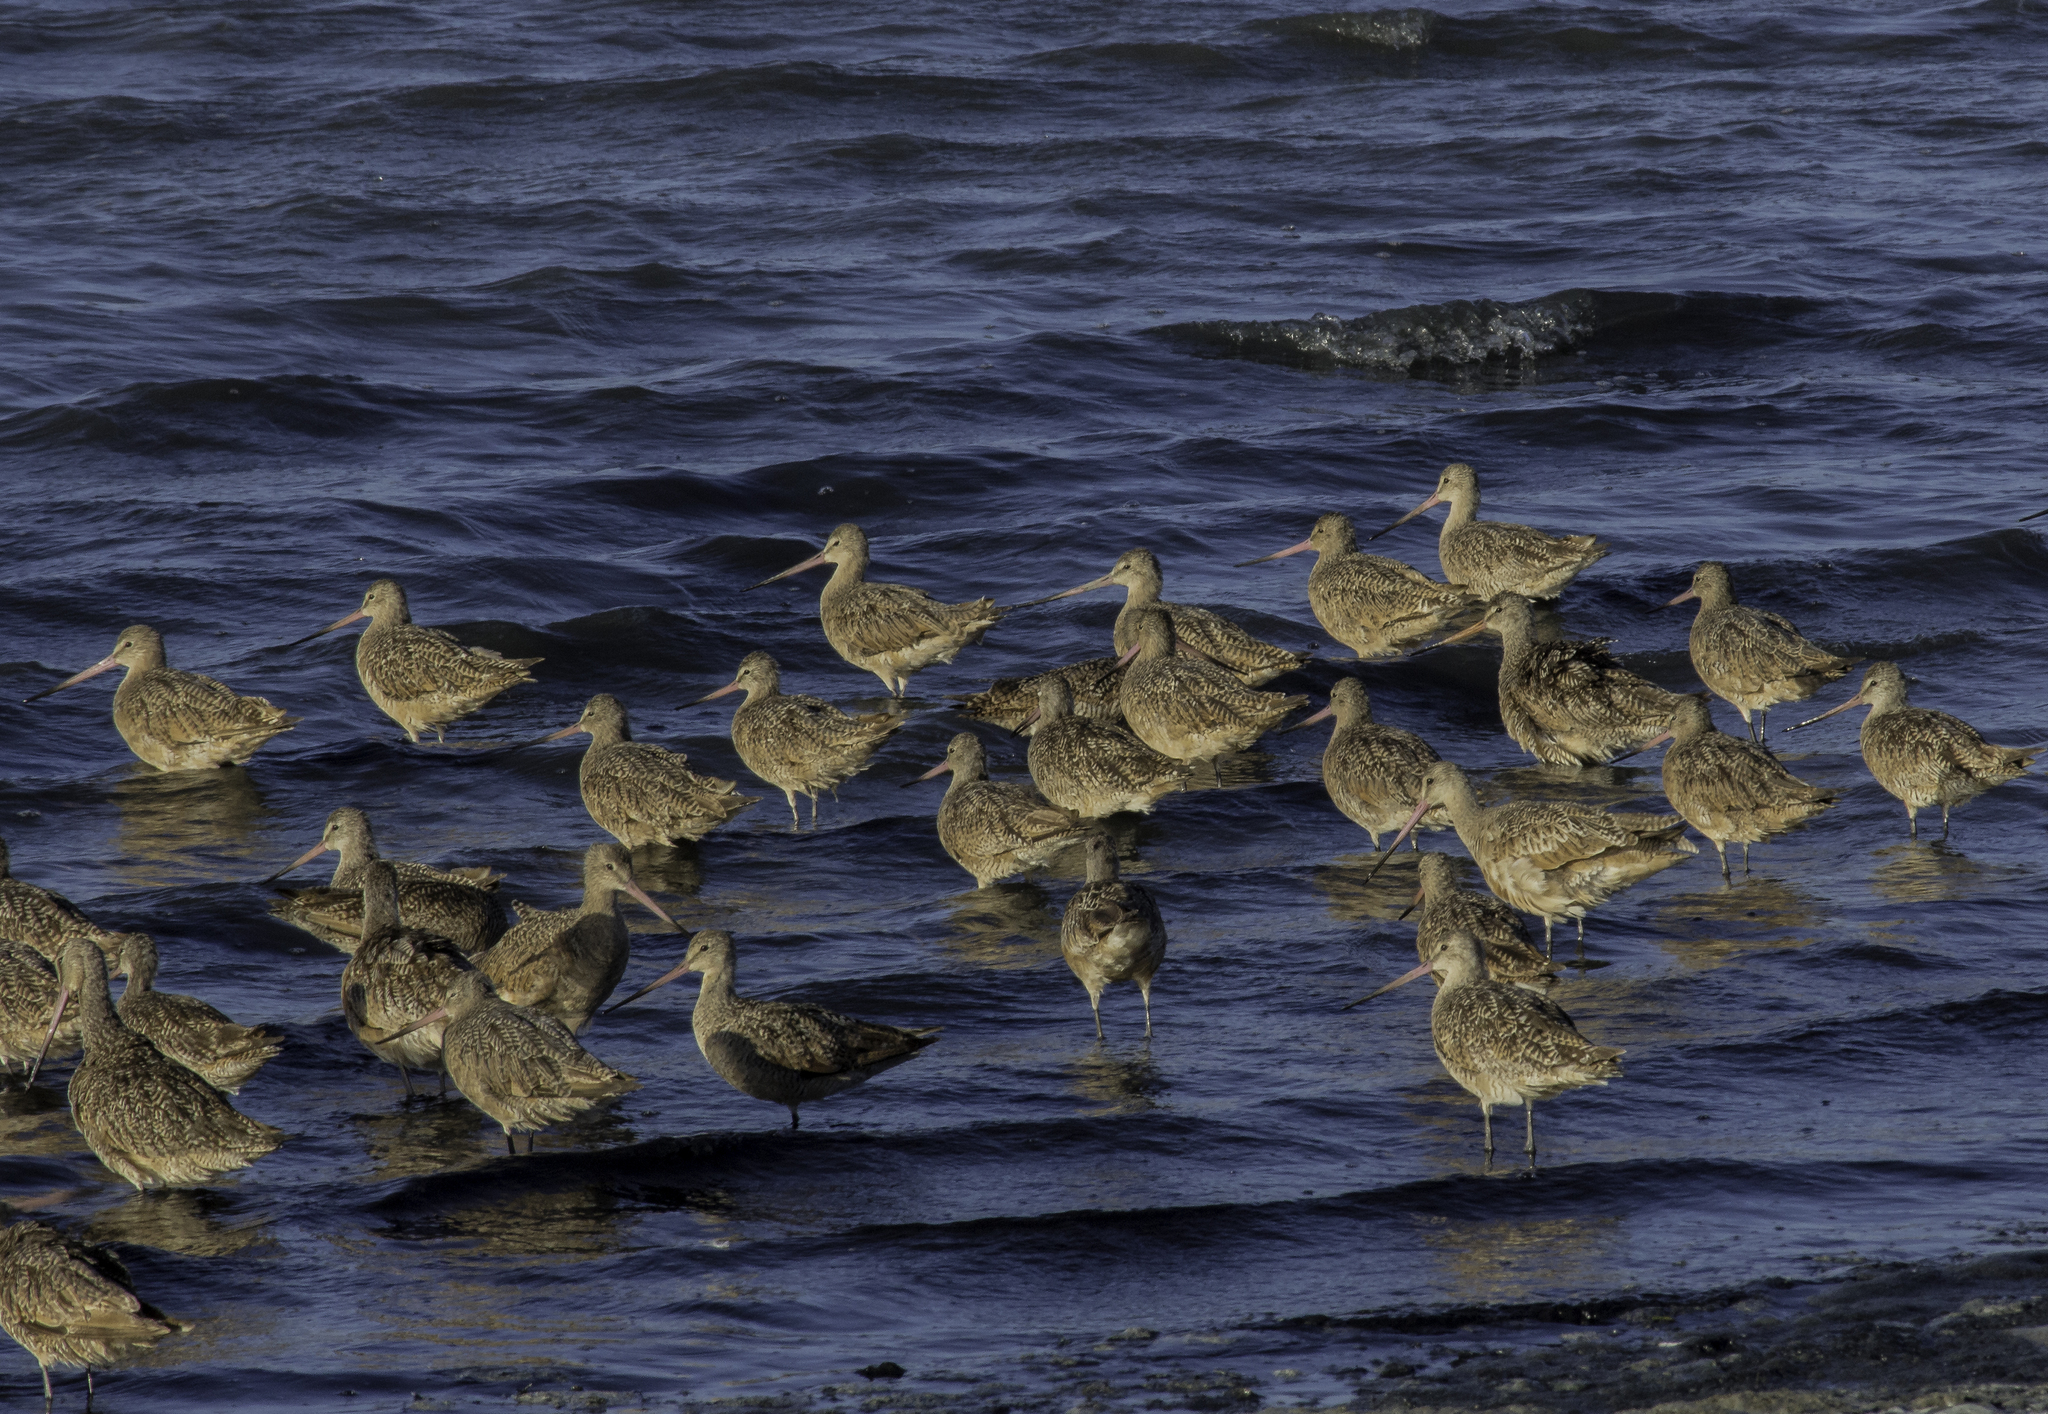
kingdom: Animalia
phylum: Chordata
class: Aves
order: Charadriiformes
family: Scolopacidae
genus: Limosa
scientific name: Limosa fedoa
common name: Marbled godwit
